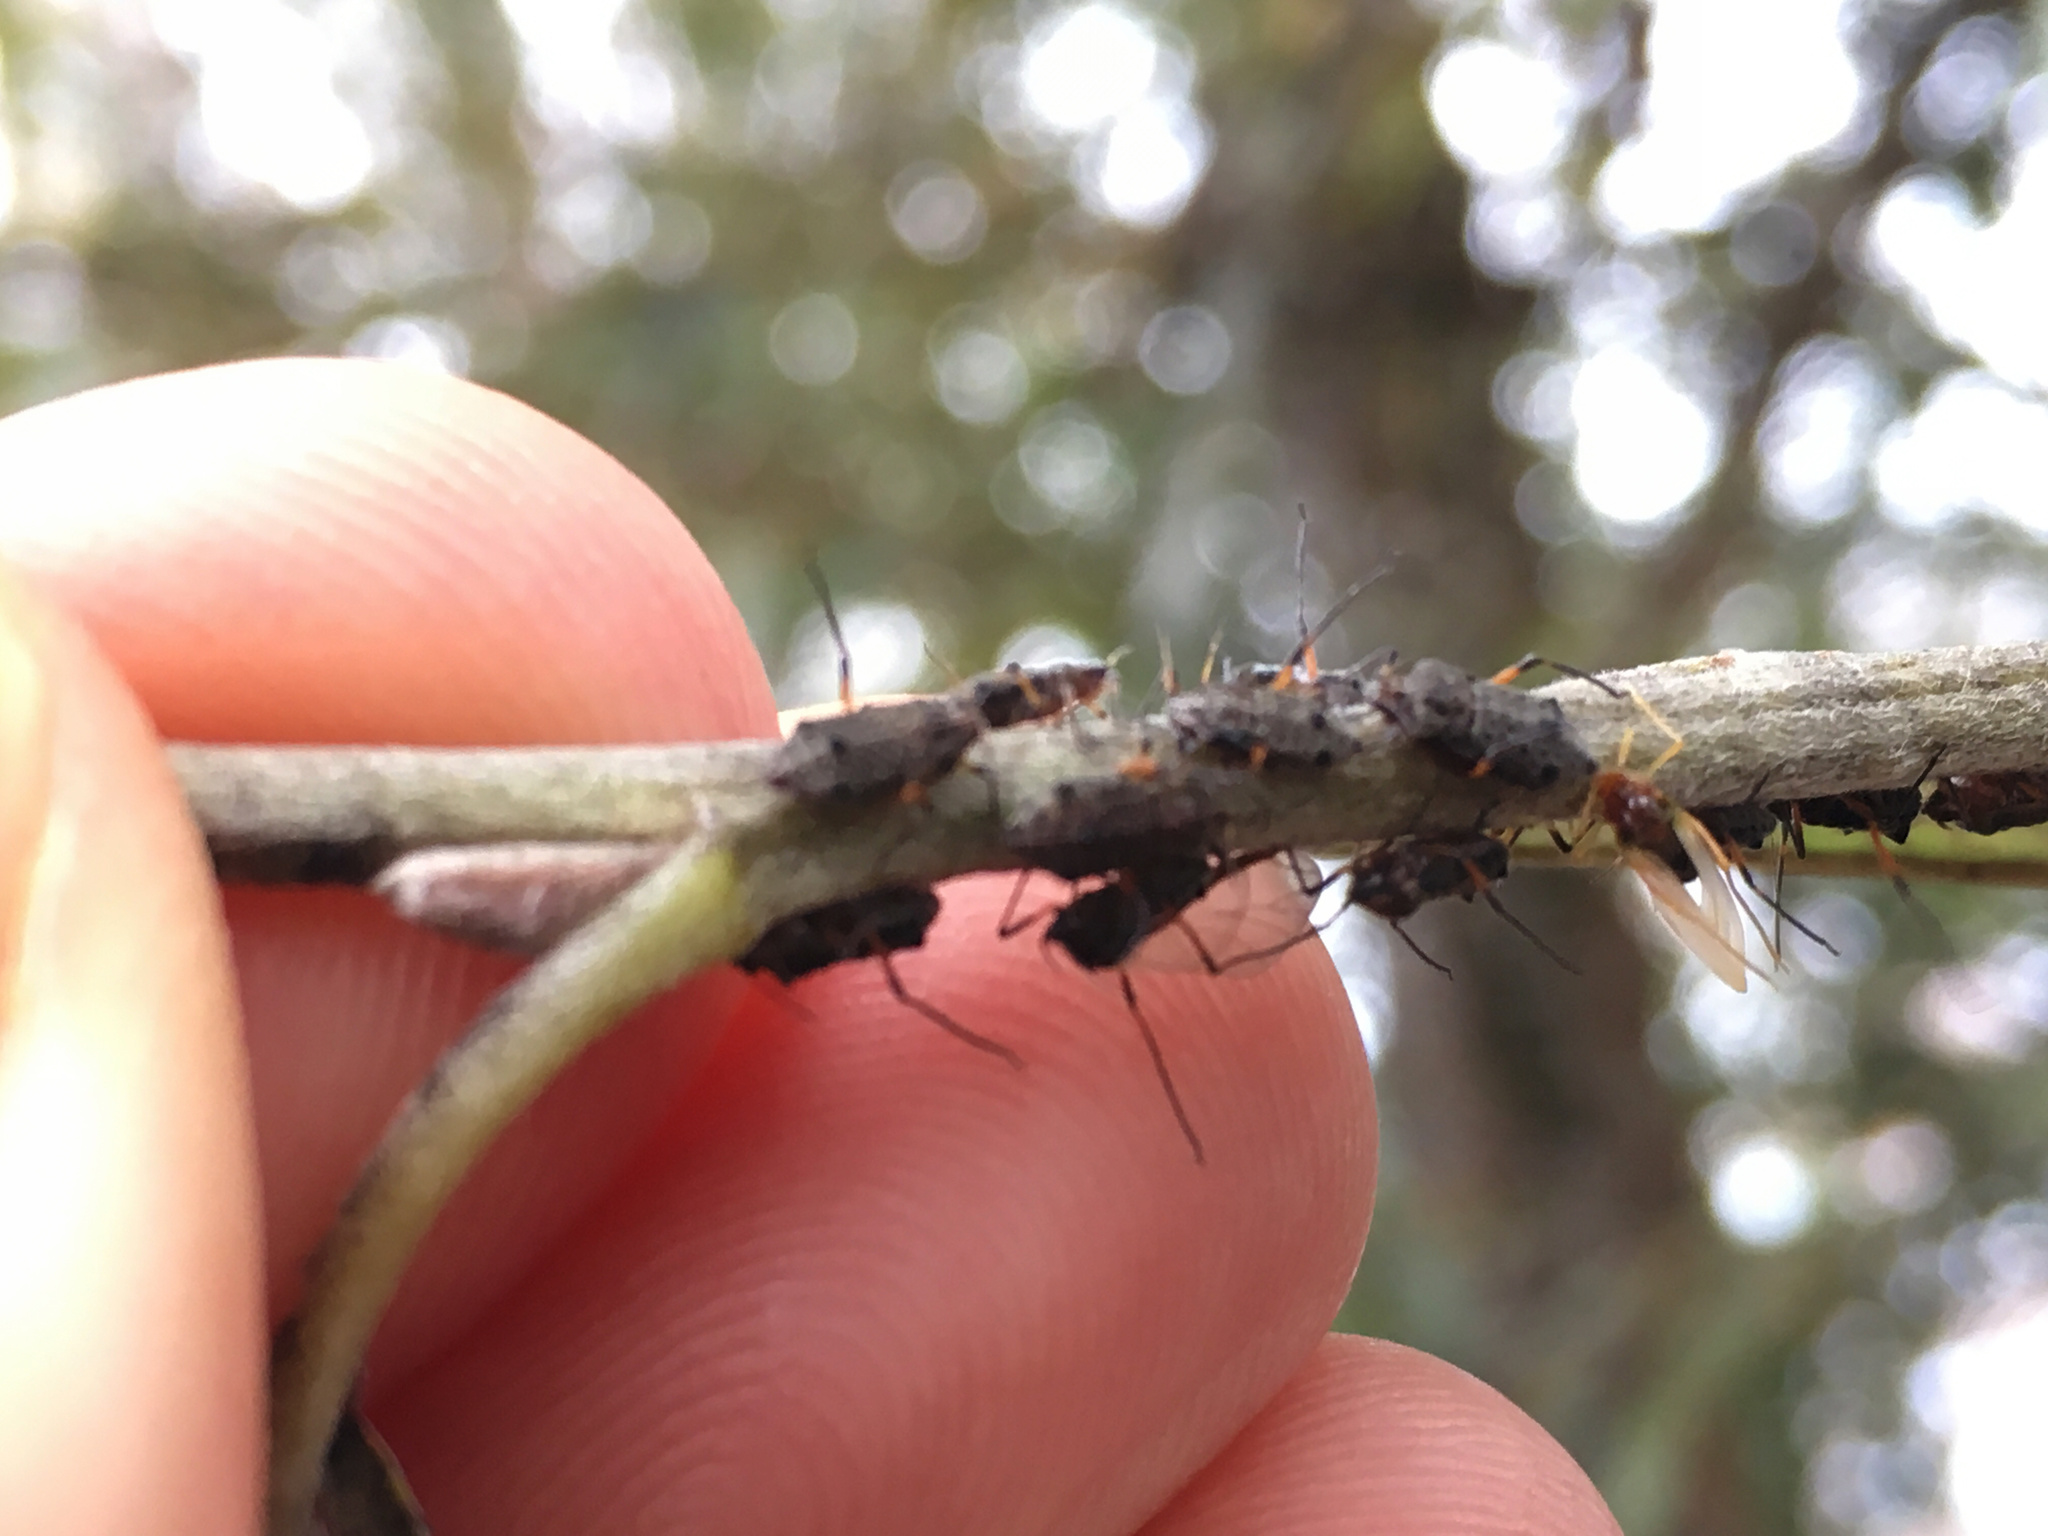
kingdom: Animalia
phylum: Arthropoda
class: Insecta
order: Hemiptera
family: Aphididae
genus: Tuberolachnus
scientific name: Tuberolachnus salignus
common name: Giant willow aphid
